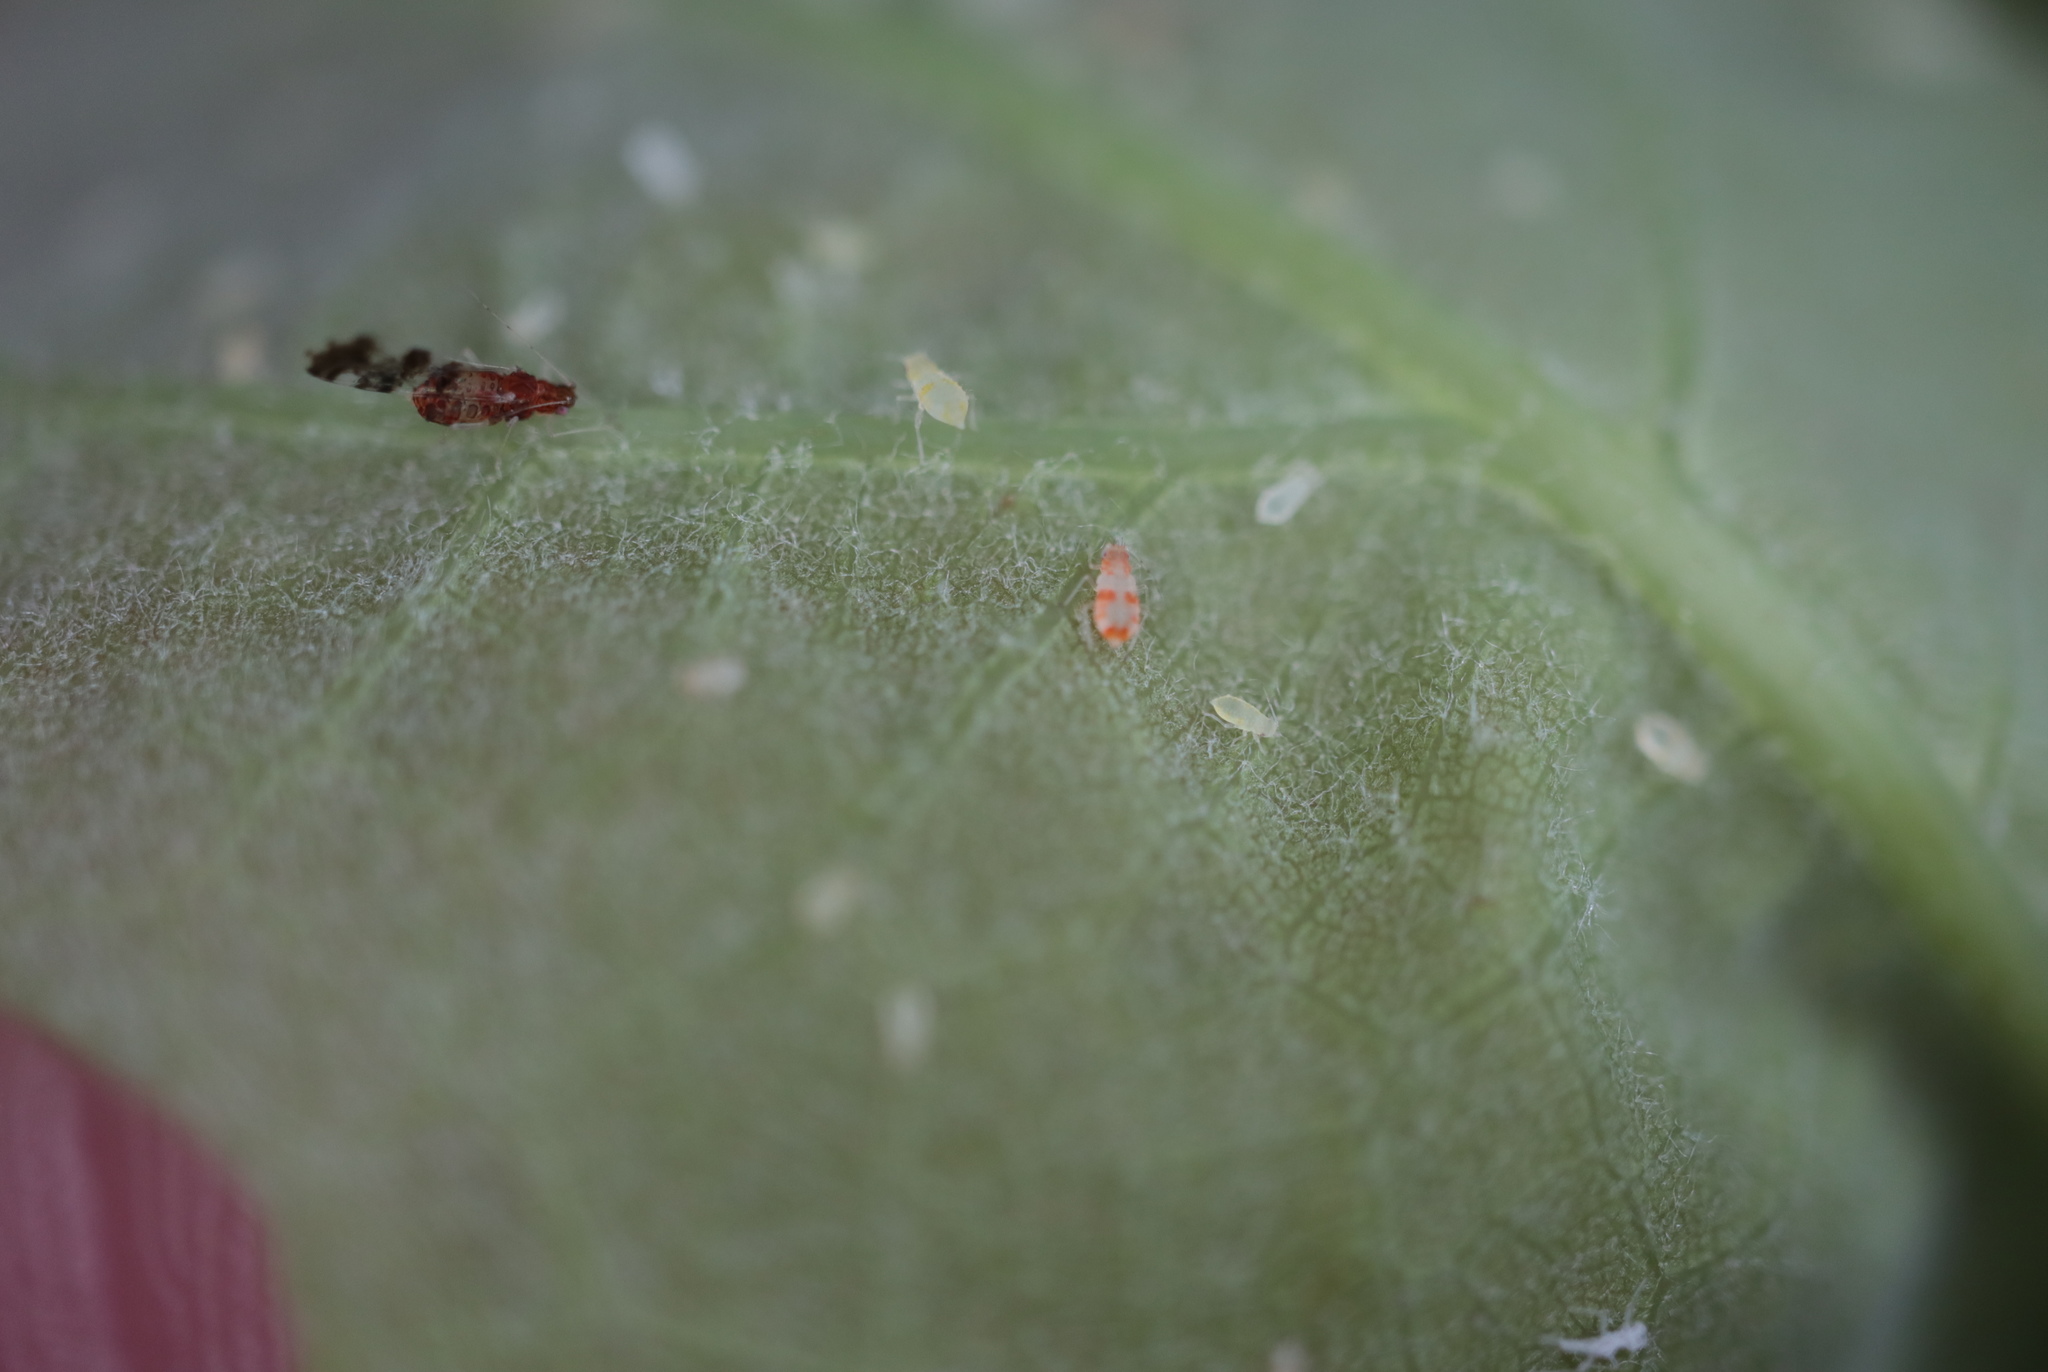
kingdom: Animalia
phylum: Arthropoda
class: Insecta
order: Hemiptera
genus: Neomyzocallis
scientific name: Neomyzocallis
